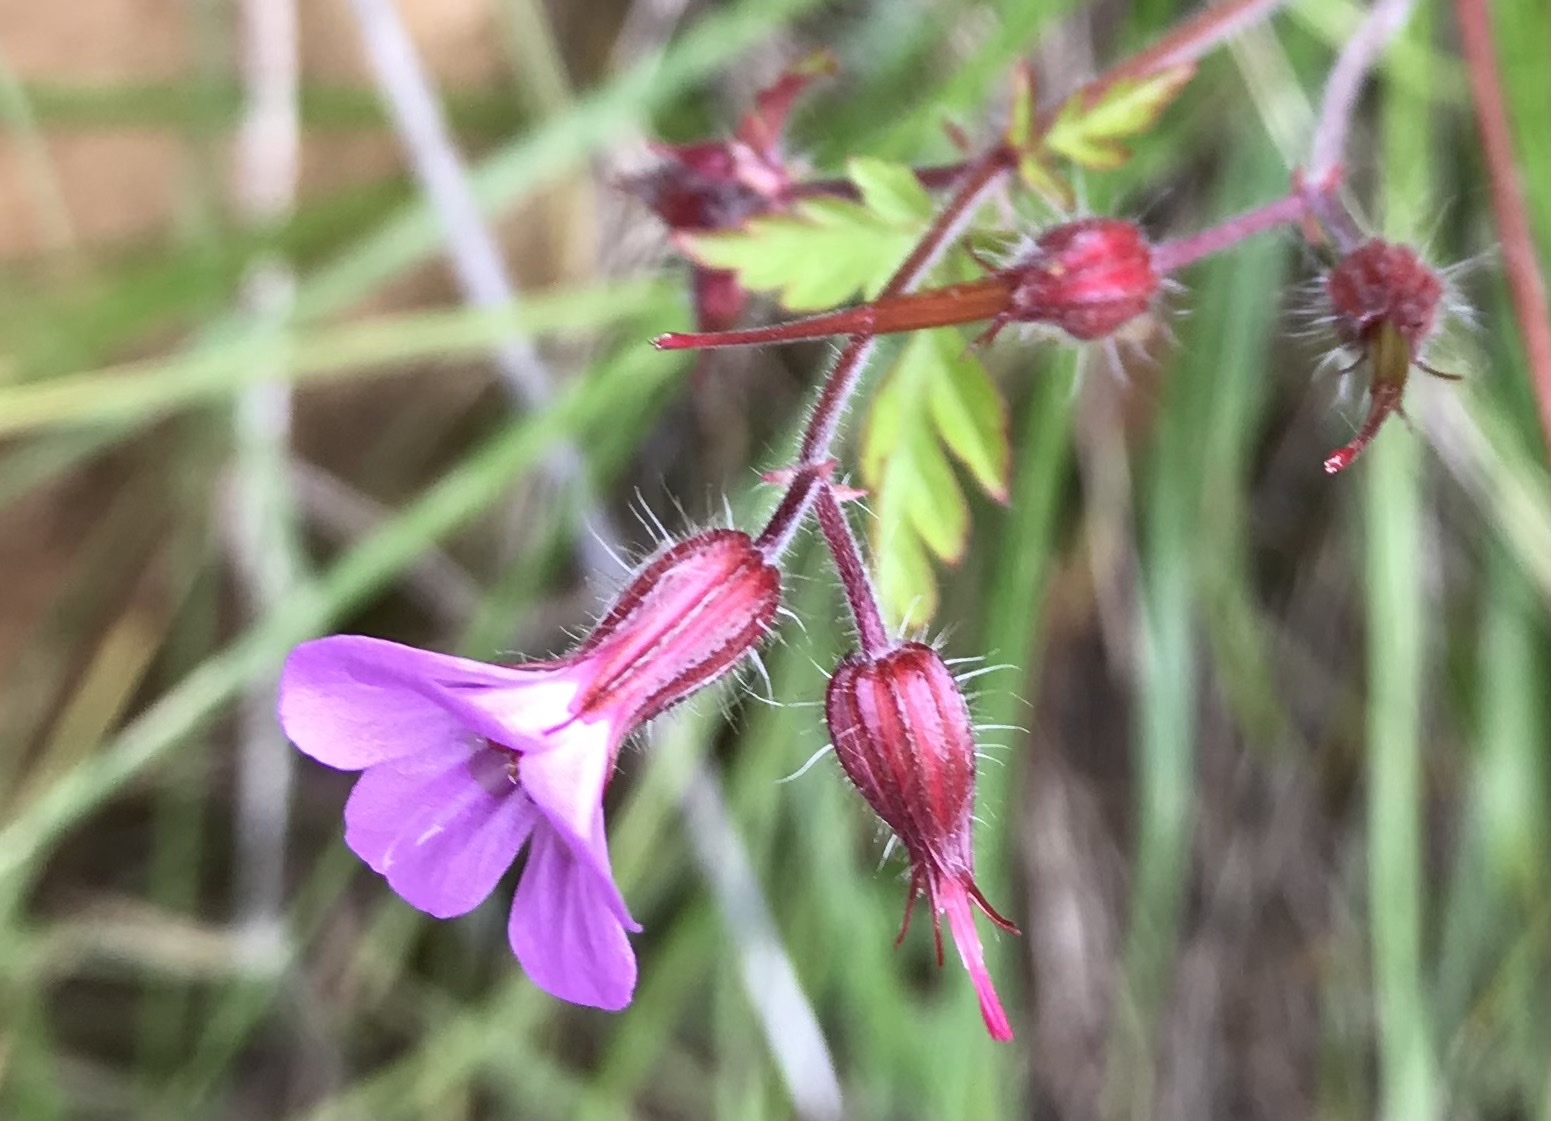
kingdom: Plantae
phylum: Tracheophyta
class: Magnoliopsida
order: Geraniales
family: Geraniaceae
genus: Geranium
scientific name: Geranium robertianum
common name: Herb-robert
